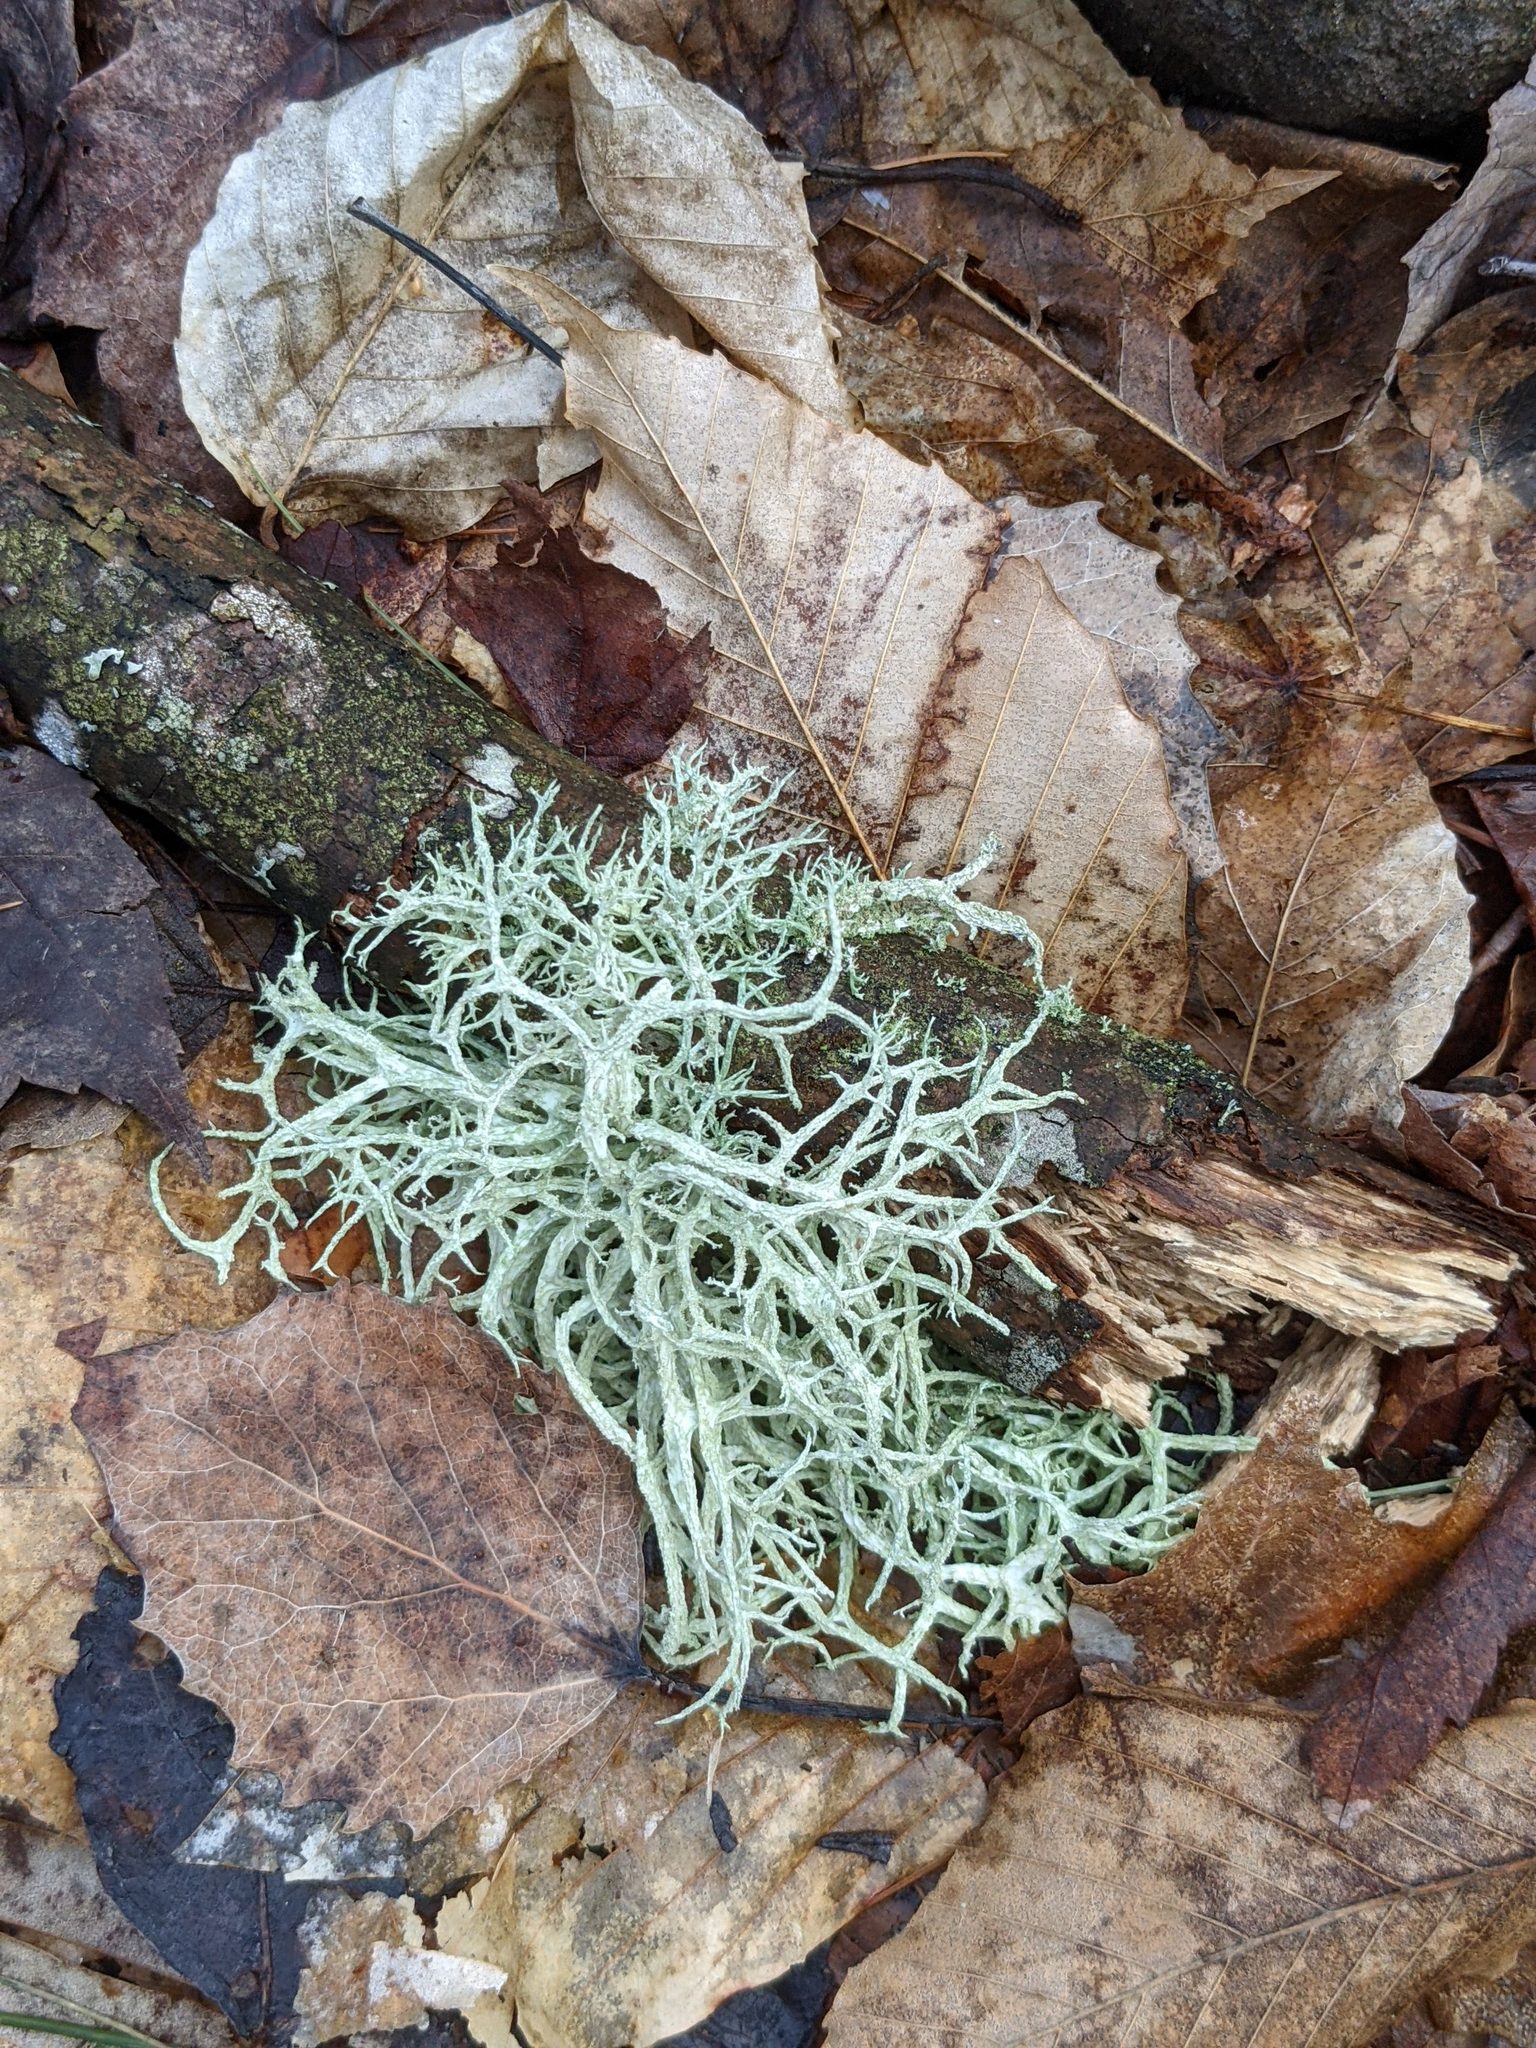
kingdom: Plantae
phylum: Tracheophyta
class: Magnoliopsida
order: Fagales
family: Fagaceae
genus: Fagus
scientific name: Fagus grandifolia
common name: American beech
